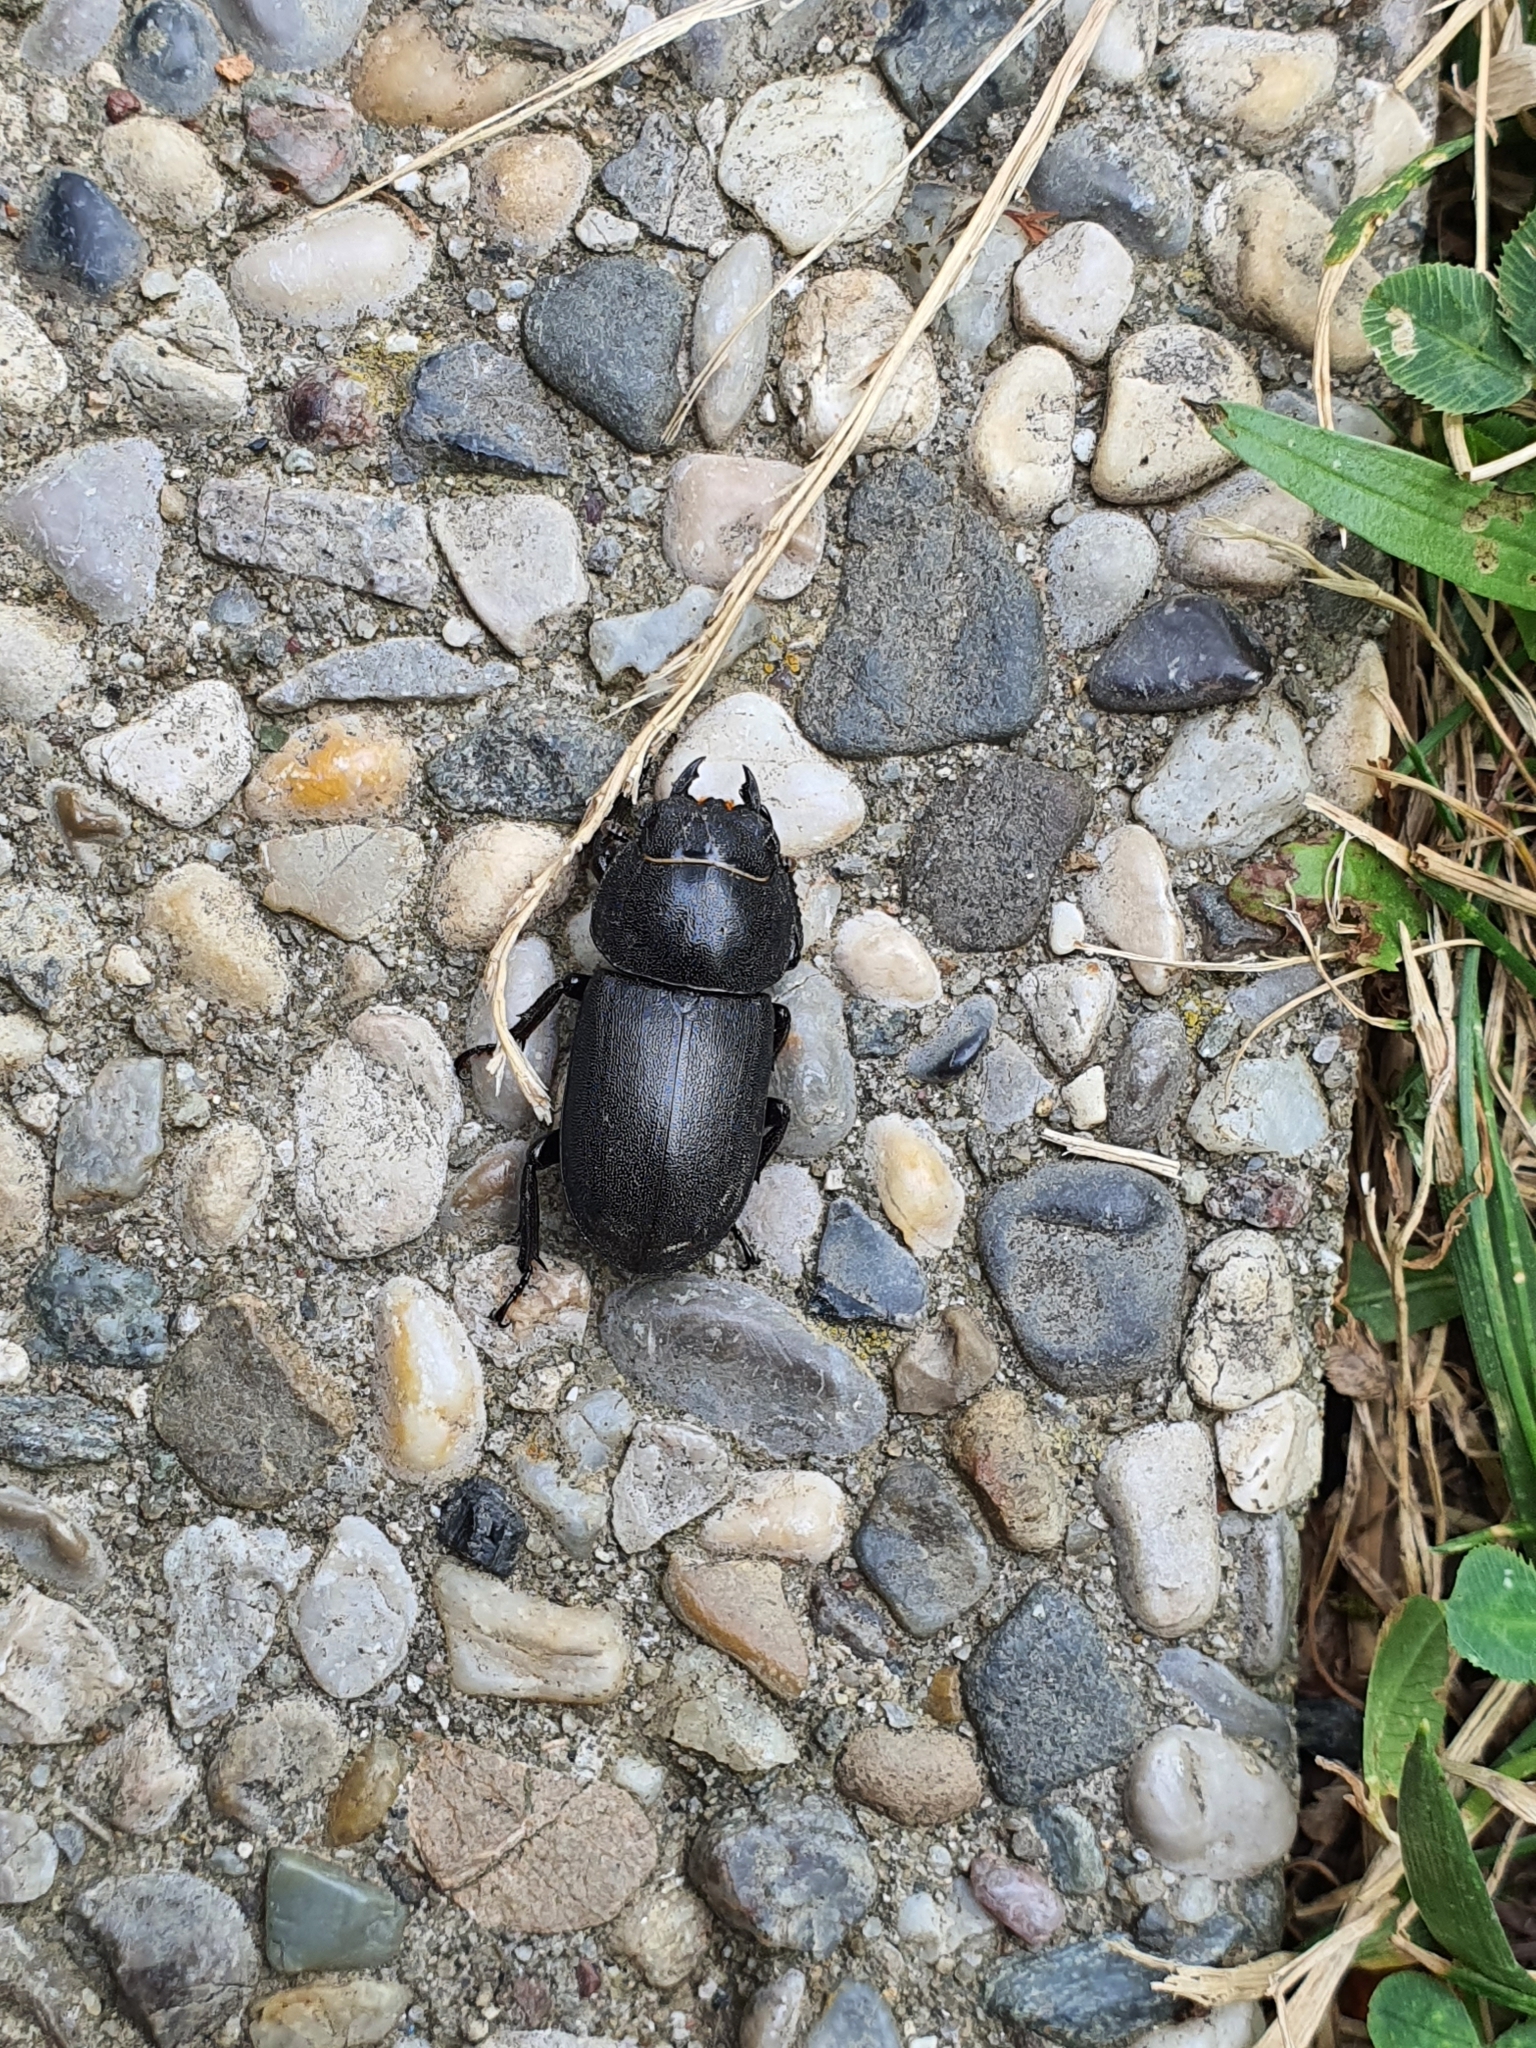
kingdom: Animalia
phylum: Arthropoda
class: Insecta
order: Coleoptera
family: Lucanidae
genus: Dorcus
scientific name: Dorcus parallelipipedus
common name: Lesser stag beetle
